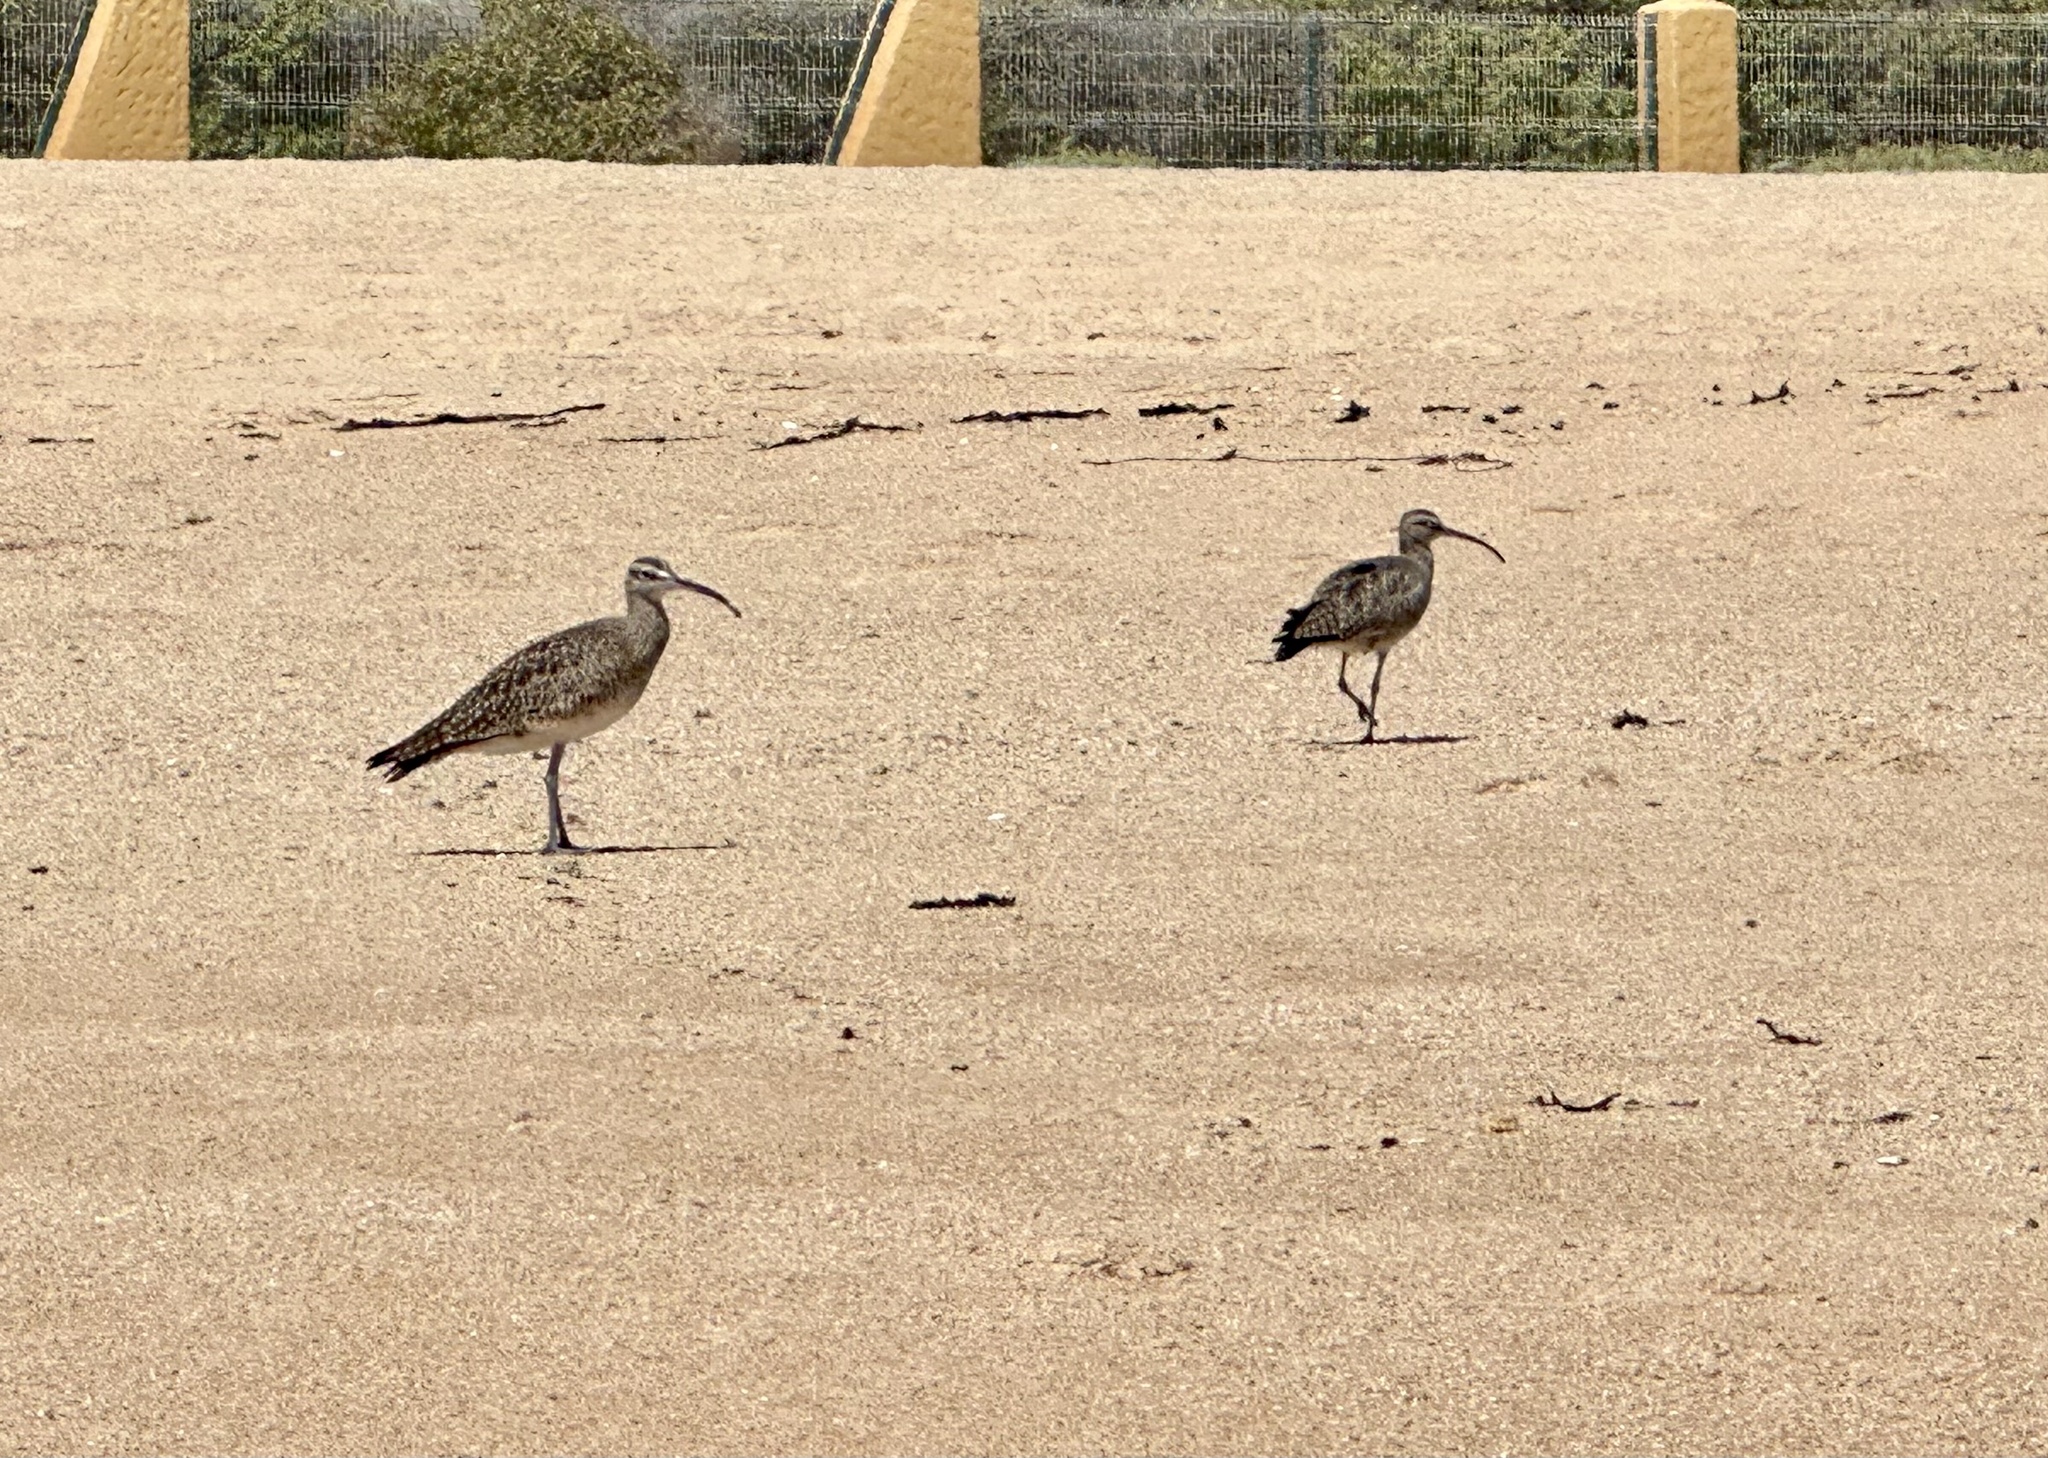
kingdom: Animalia
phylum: Chordata
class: Aves
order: Charadriiformes
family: Scolopacidae
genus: Numenius
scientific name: Numenius phaeopus
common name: Whimbrel
